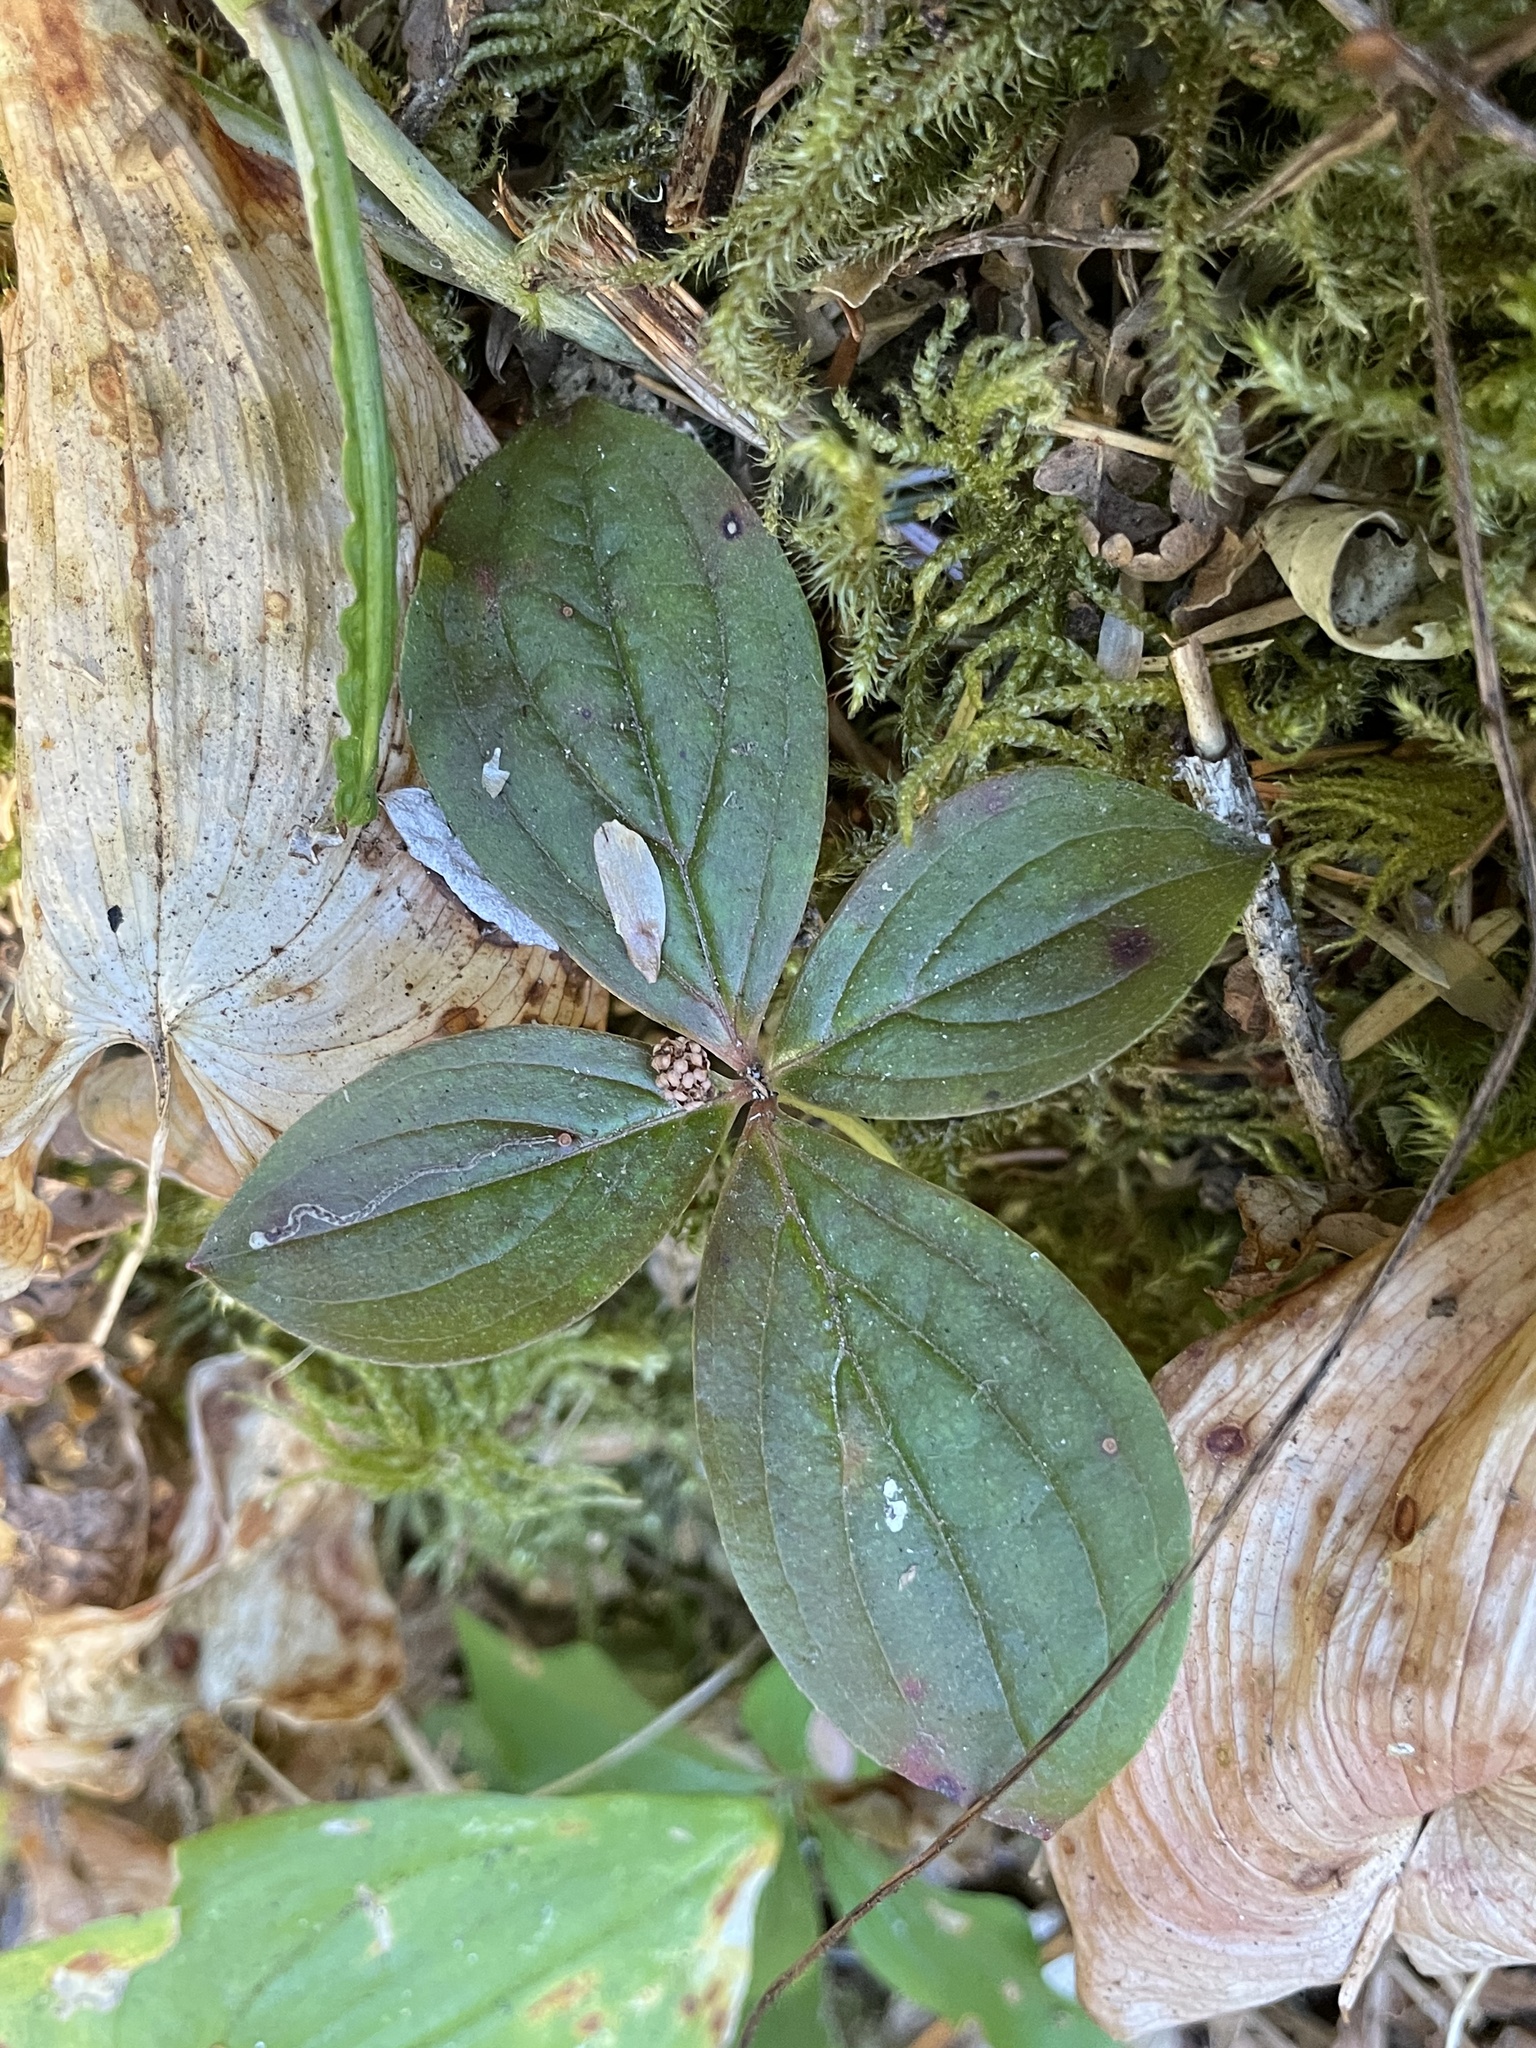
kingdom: Plantae
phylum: Tracheophyta
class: Magnoliopsida
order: Cornales
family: Cornaceae
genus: Cornus
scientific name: Cornus unalaschkensis
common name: Alaska bunchberry
